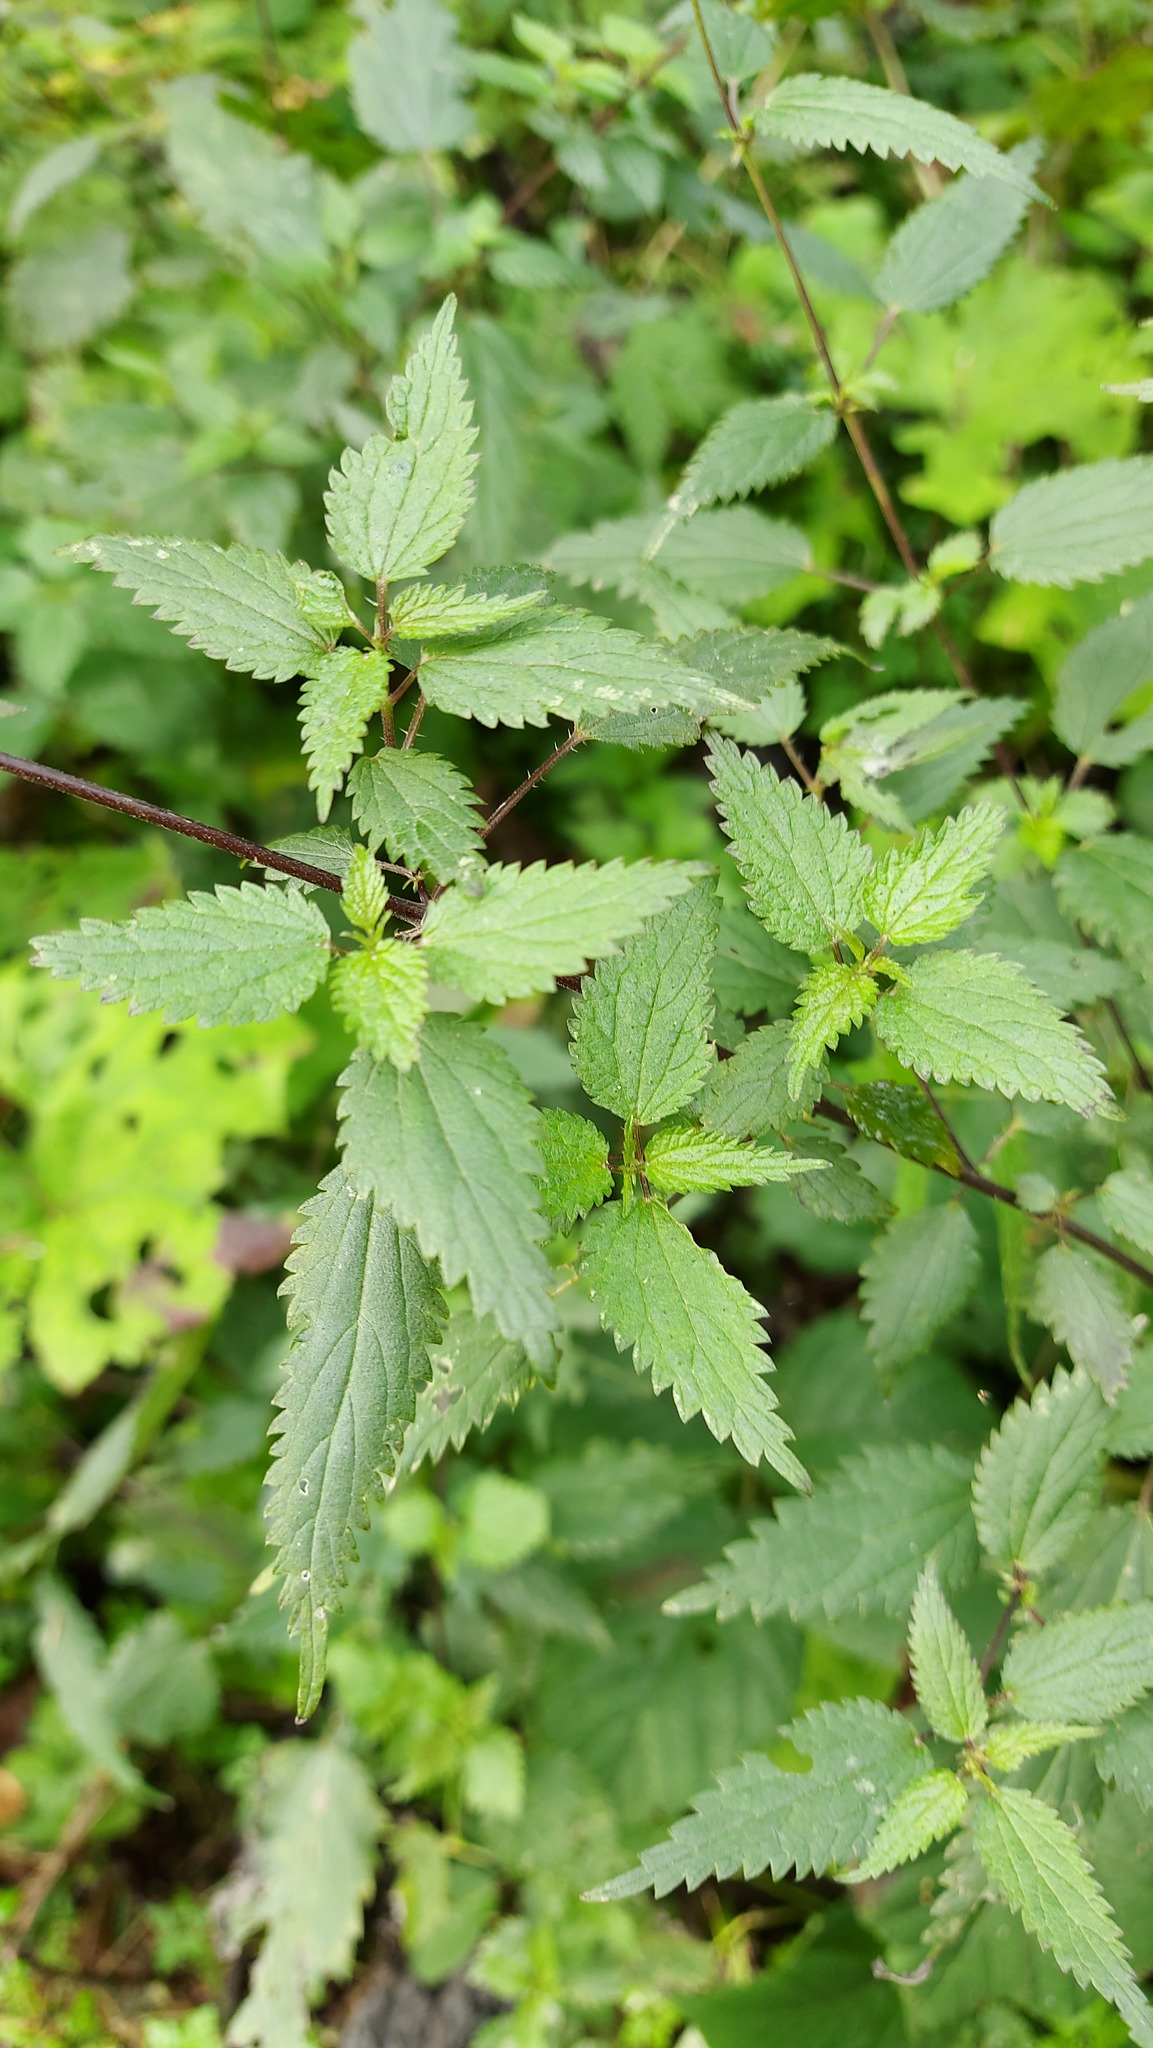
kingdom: Plantae
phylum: Tracheophyta
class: Magnoliopsida
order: Rosales
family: Urticaceae
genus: Urtica
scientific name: Urtica dioica
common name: Common nettle
